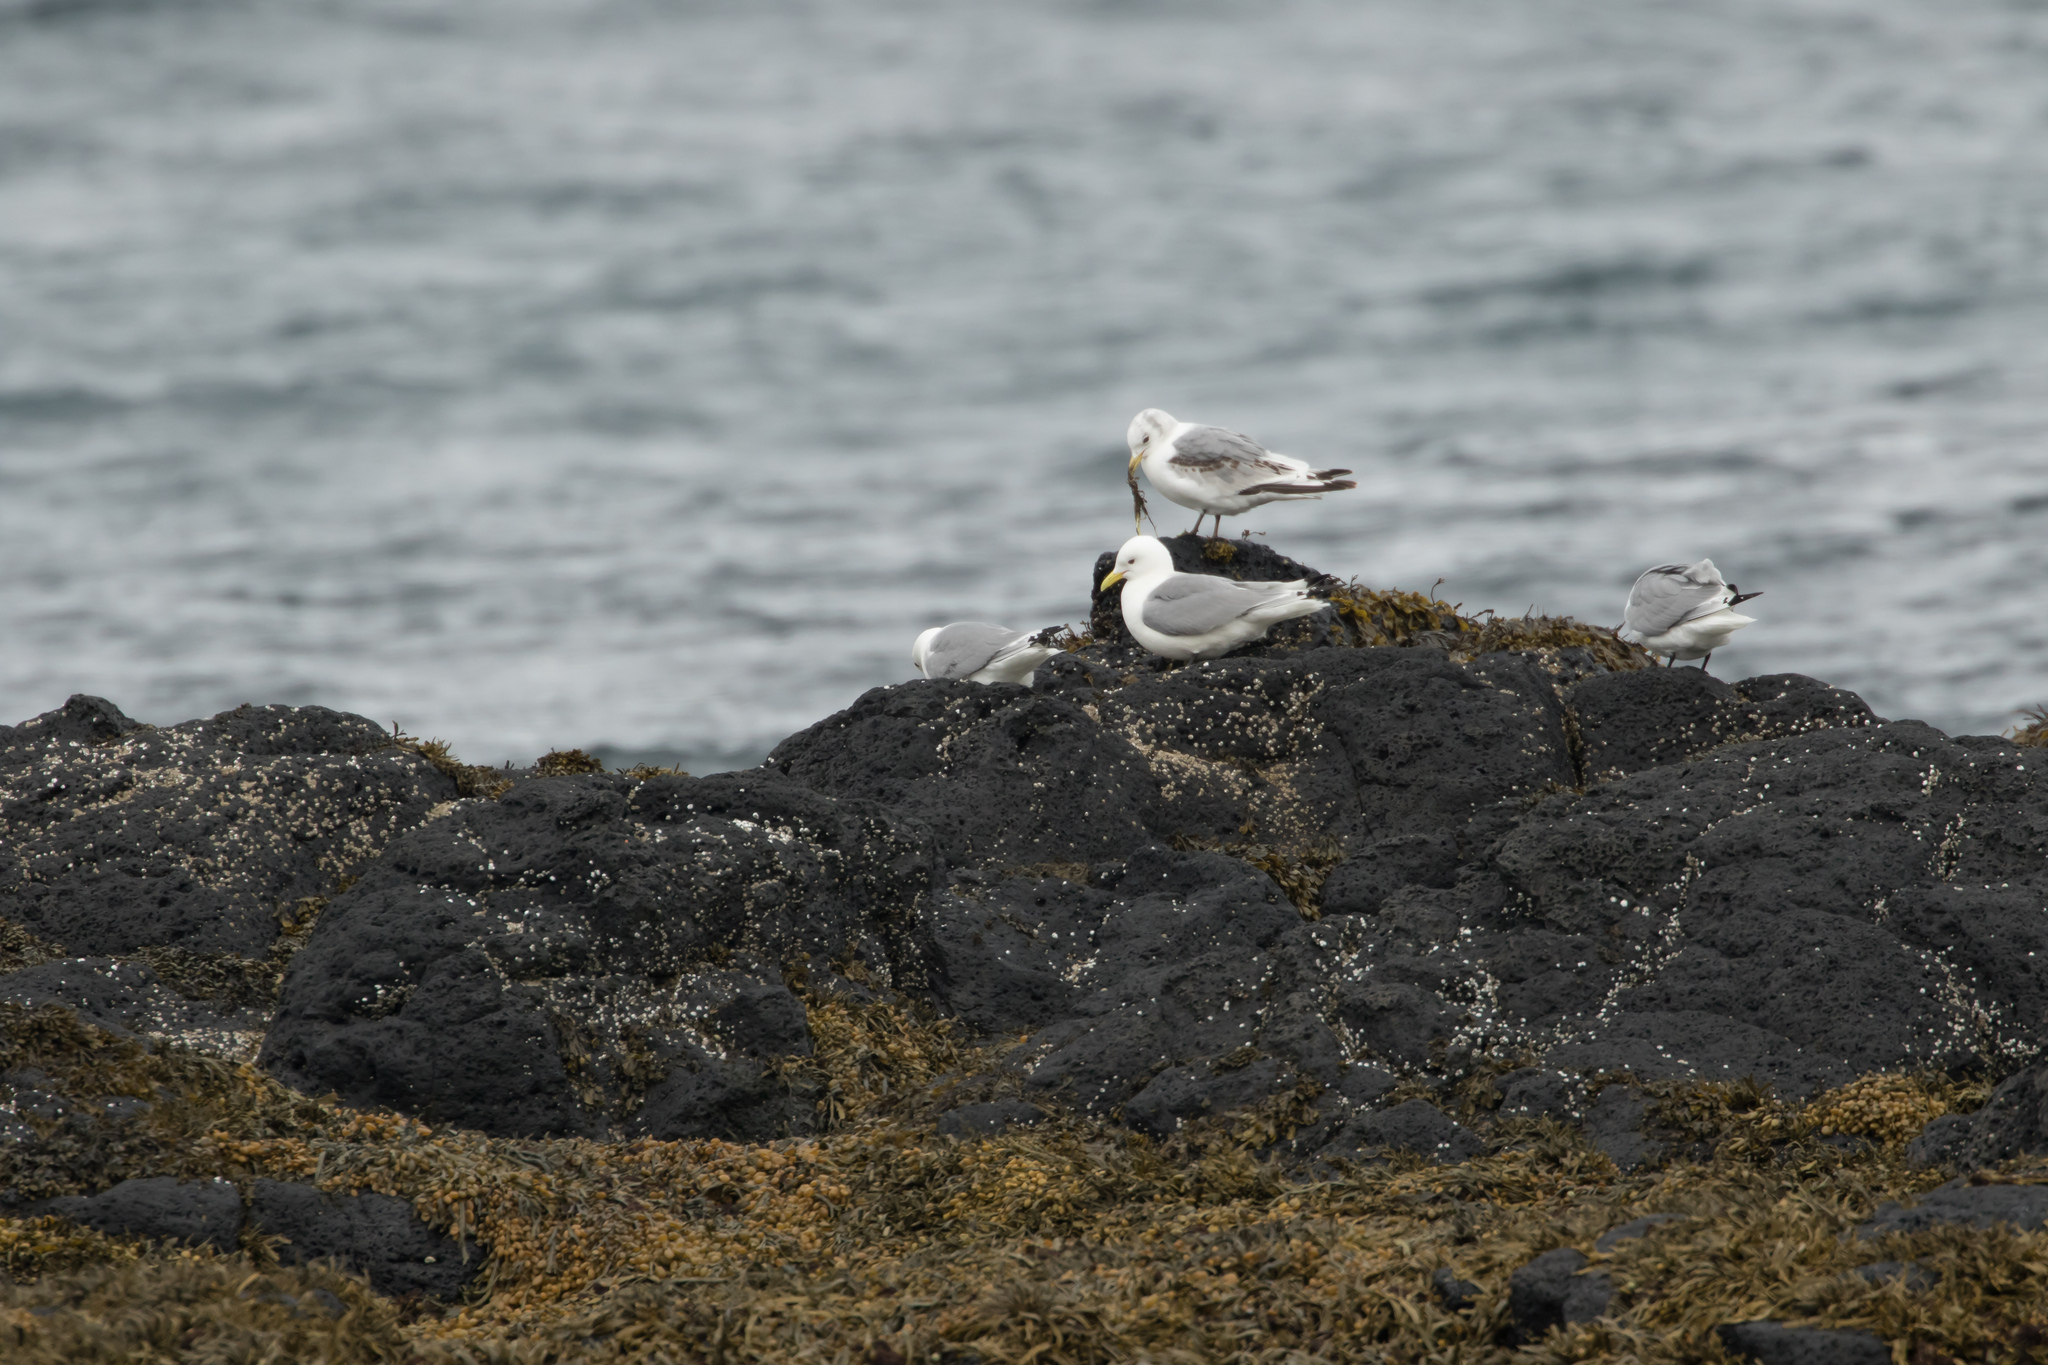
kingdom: Animalia
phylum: Chordata
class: Aves
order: Charadriiformes
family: Laridae
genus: Rissa
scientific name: Rissa tridactyla
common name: Black-legged kittiwake
